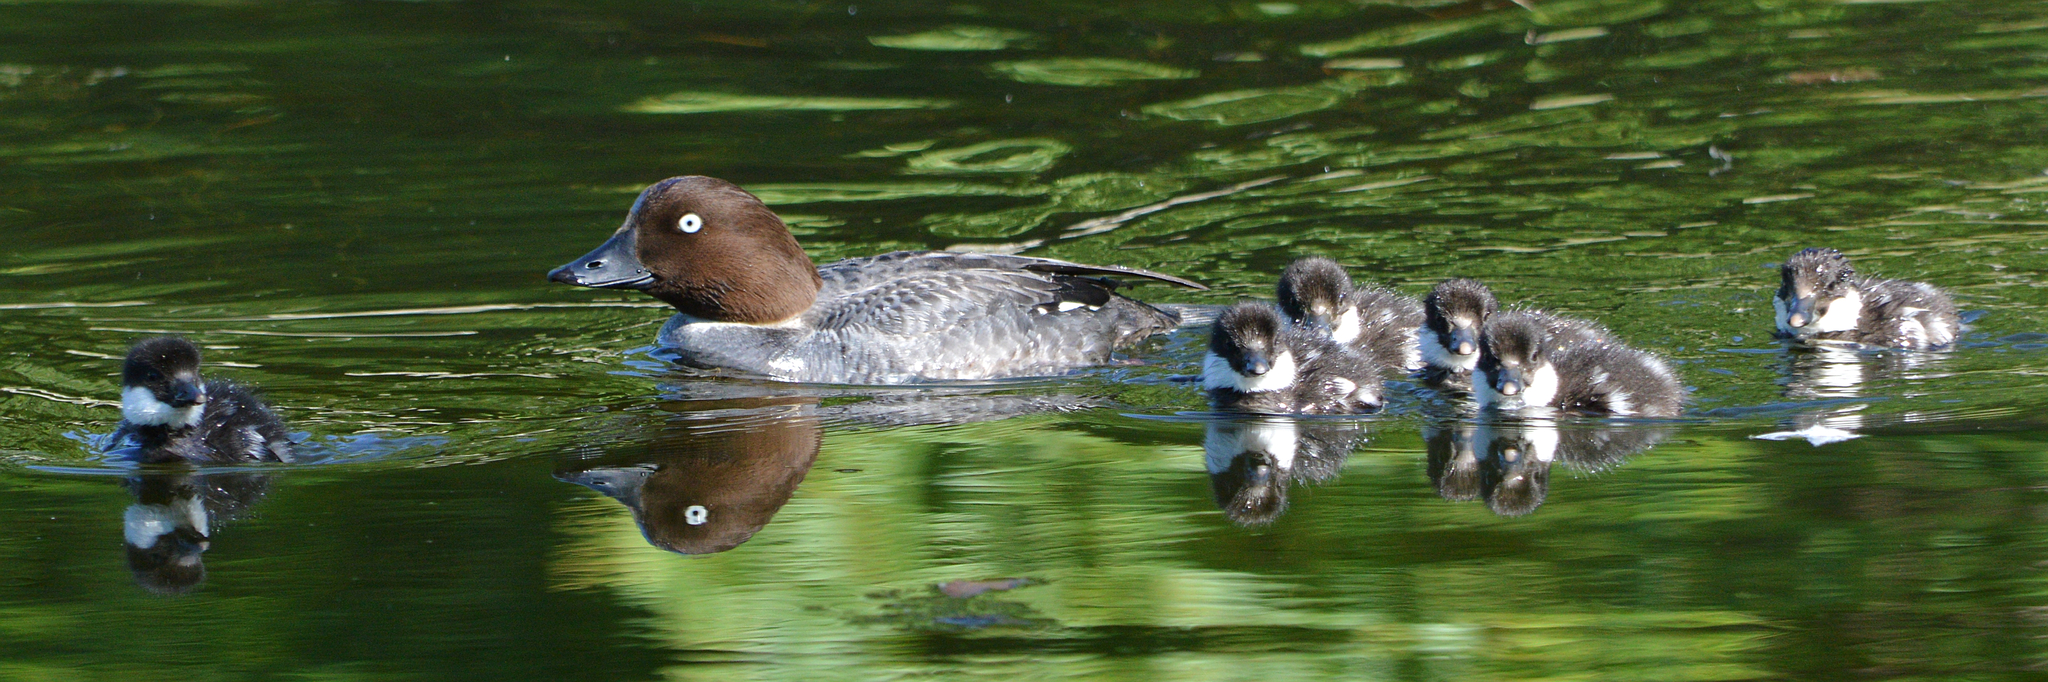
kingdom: Animalia
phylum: Chordata
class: Aves
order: Anseriformes
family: Anatidae
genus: Bucephala
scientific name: Bucephala clangula
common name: Common goldeneye
